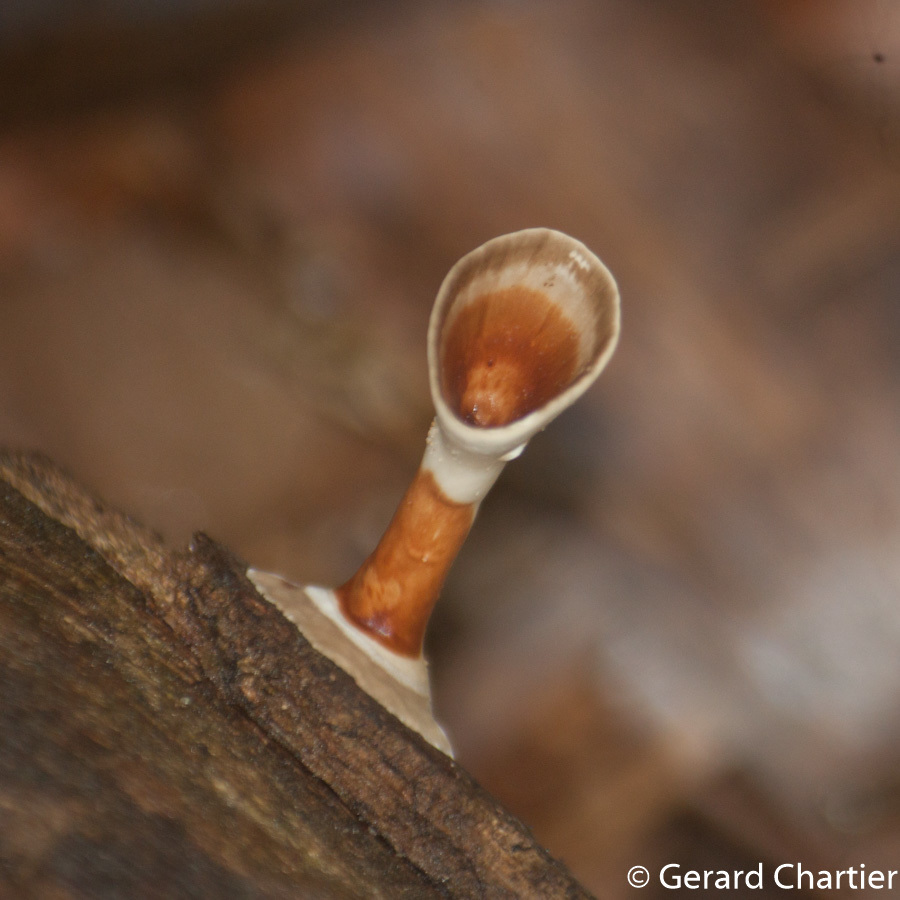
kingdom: Fungi
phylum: Basidiomycota
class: Agaricomycetes
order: Polyporales
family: Polyporaceae
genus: Microporus
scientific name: Microporus xanthopus
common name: Yellow-stemmed micropore
